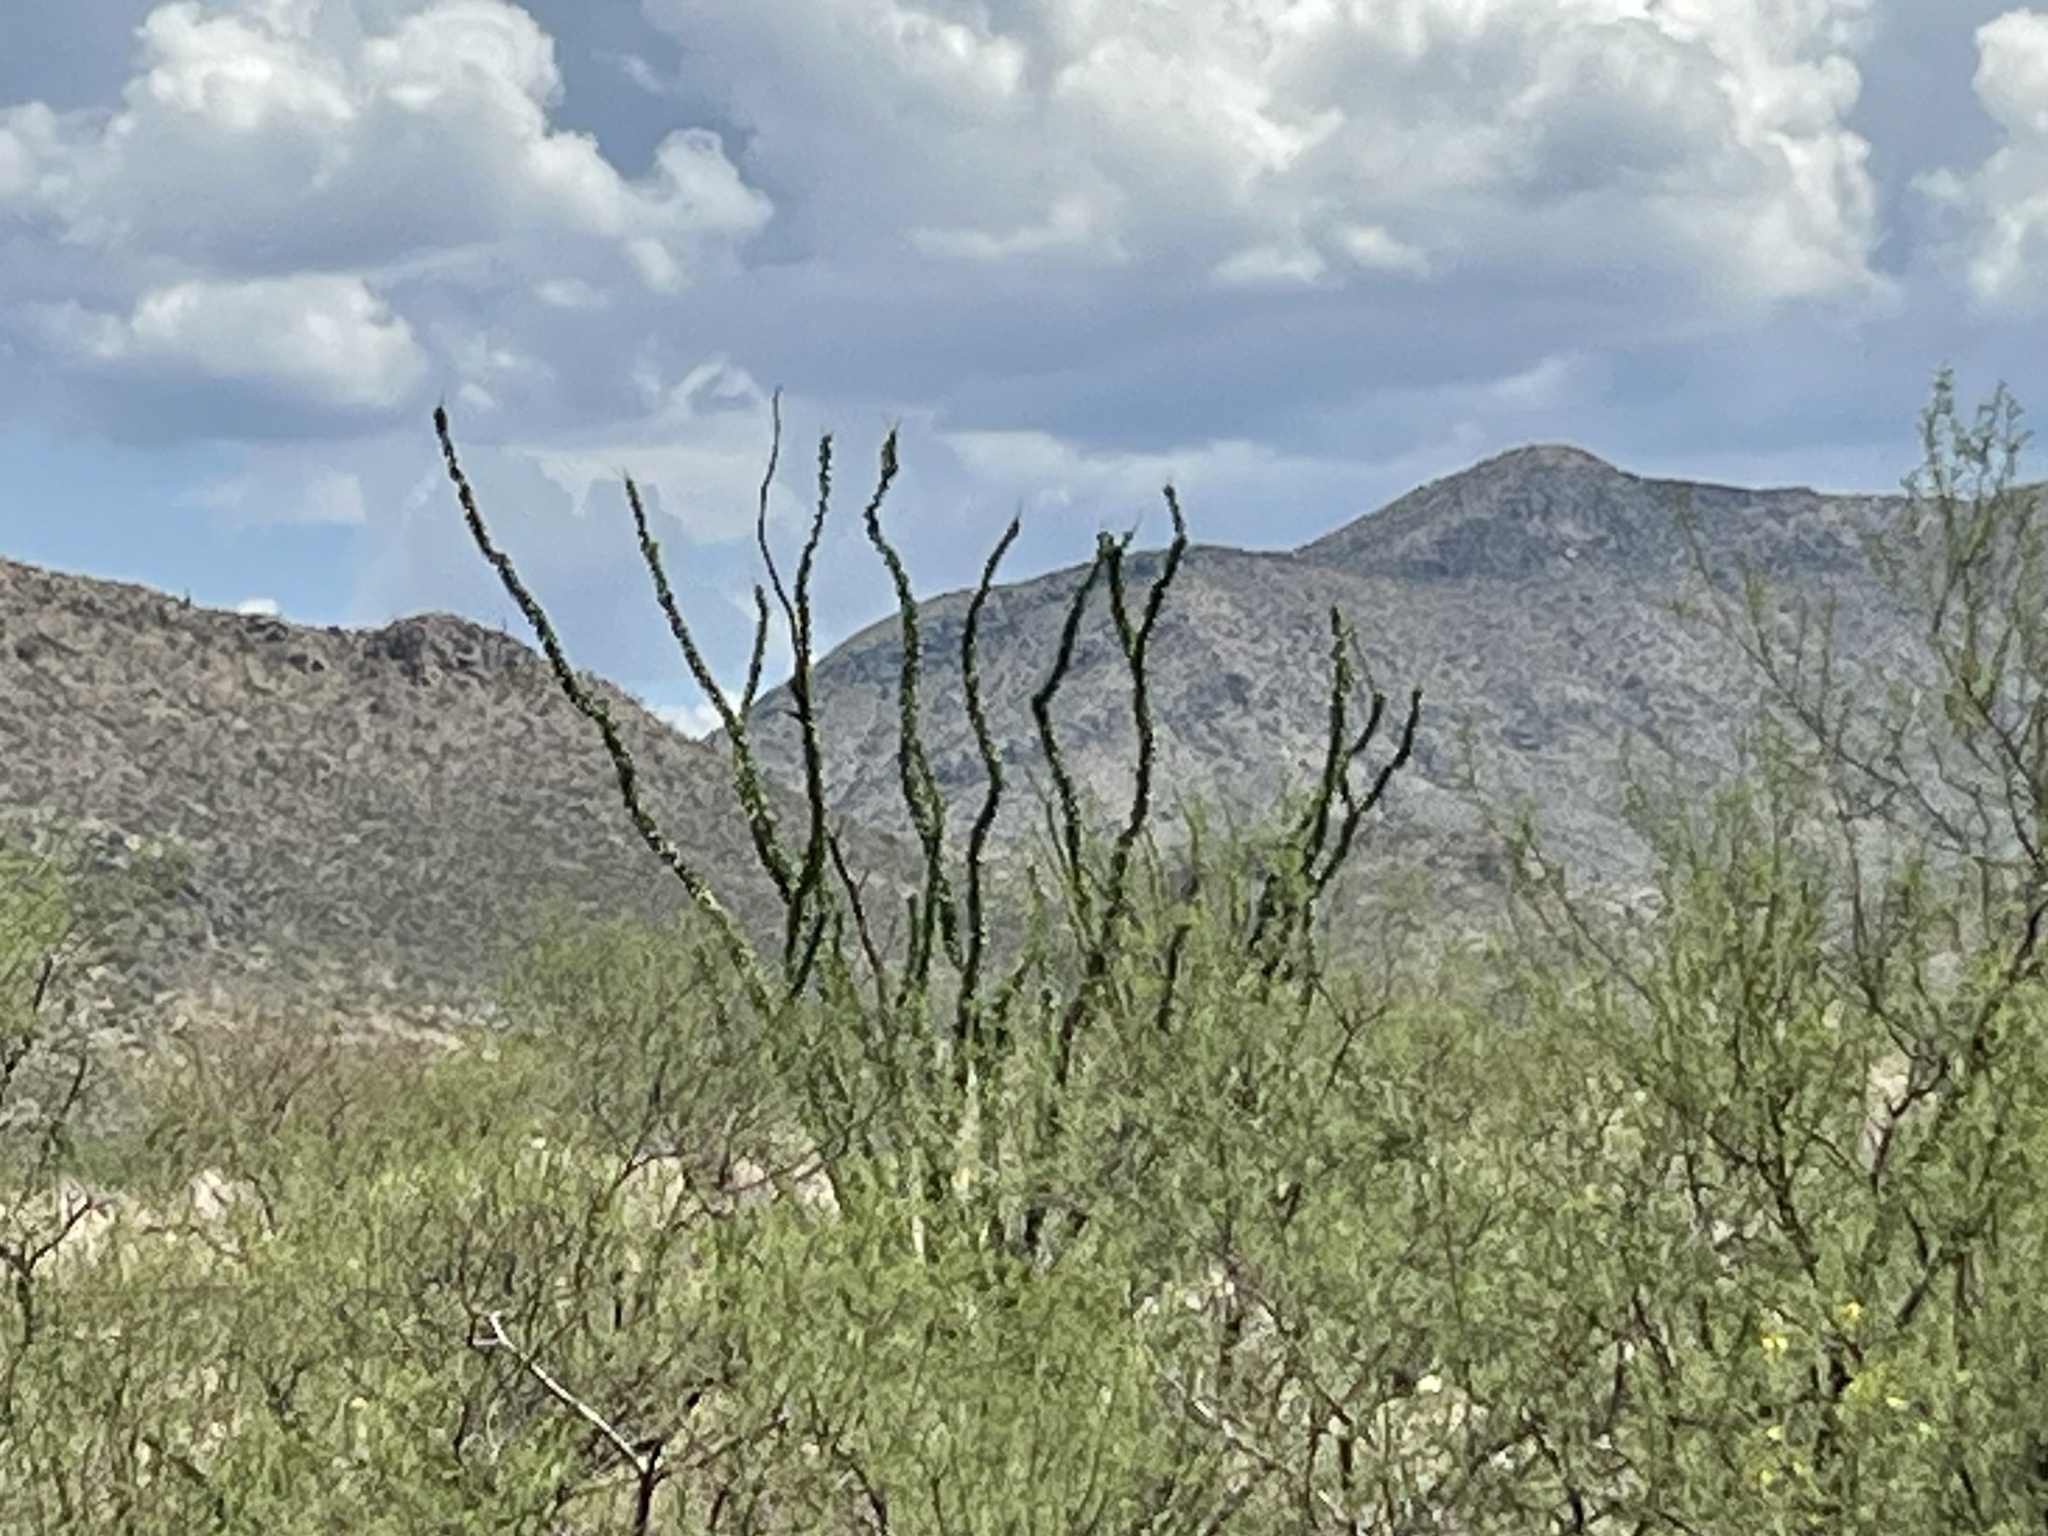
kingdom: Plantae
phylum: Tracheophyta
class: Magnoliopsida
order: Ericales
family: Fouquieriaceae
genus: Fouquieria
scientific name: Fouquieria splendens
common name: Vine-cactus
